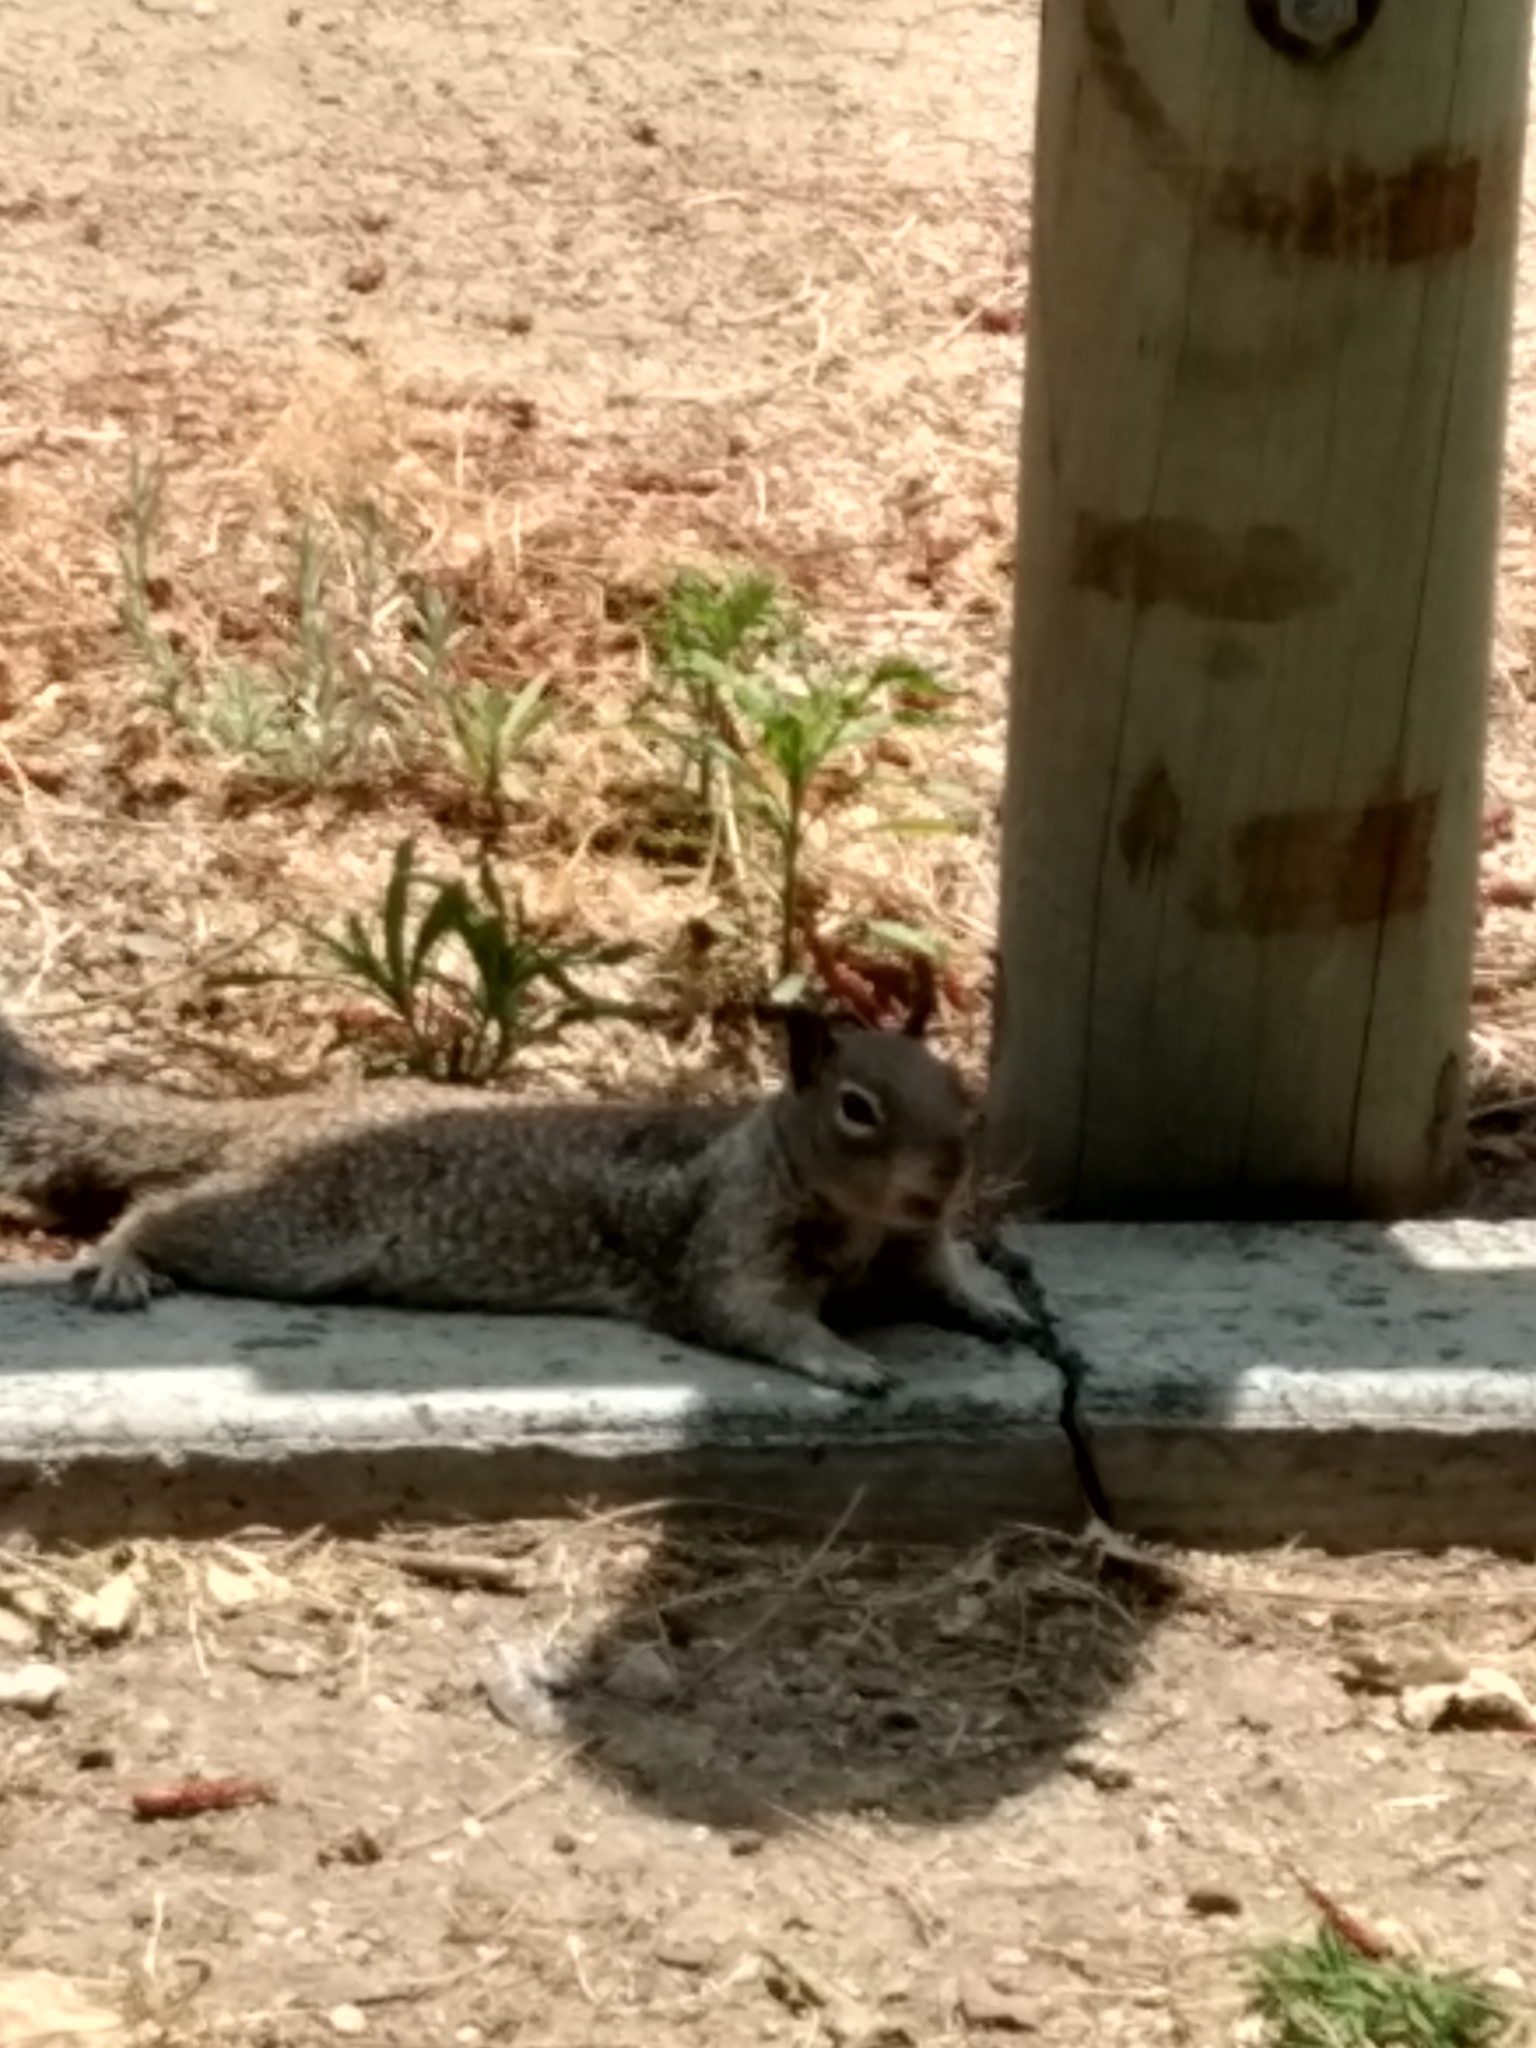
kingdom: Animalia
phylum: Chordata
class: Mammalia
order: Rodentia
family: Sciuridae
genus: Otospermophilus
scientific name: Otospermophilus beecheyi
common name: California ground squirrel
